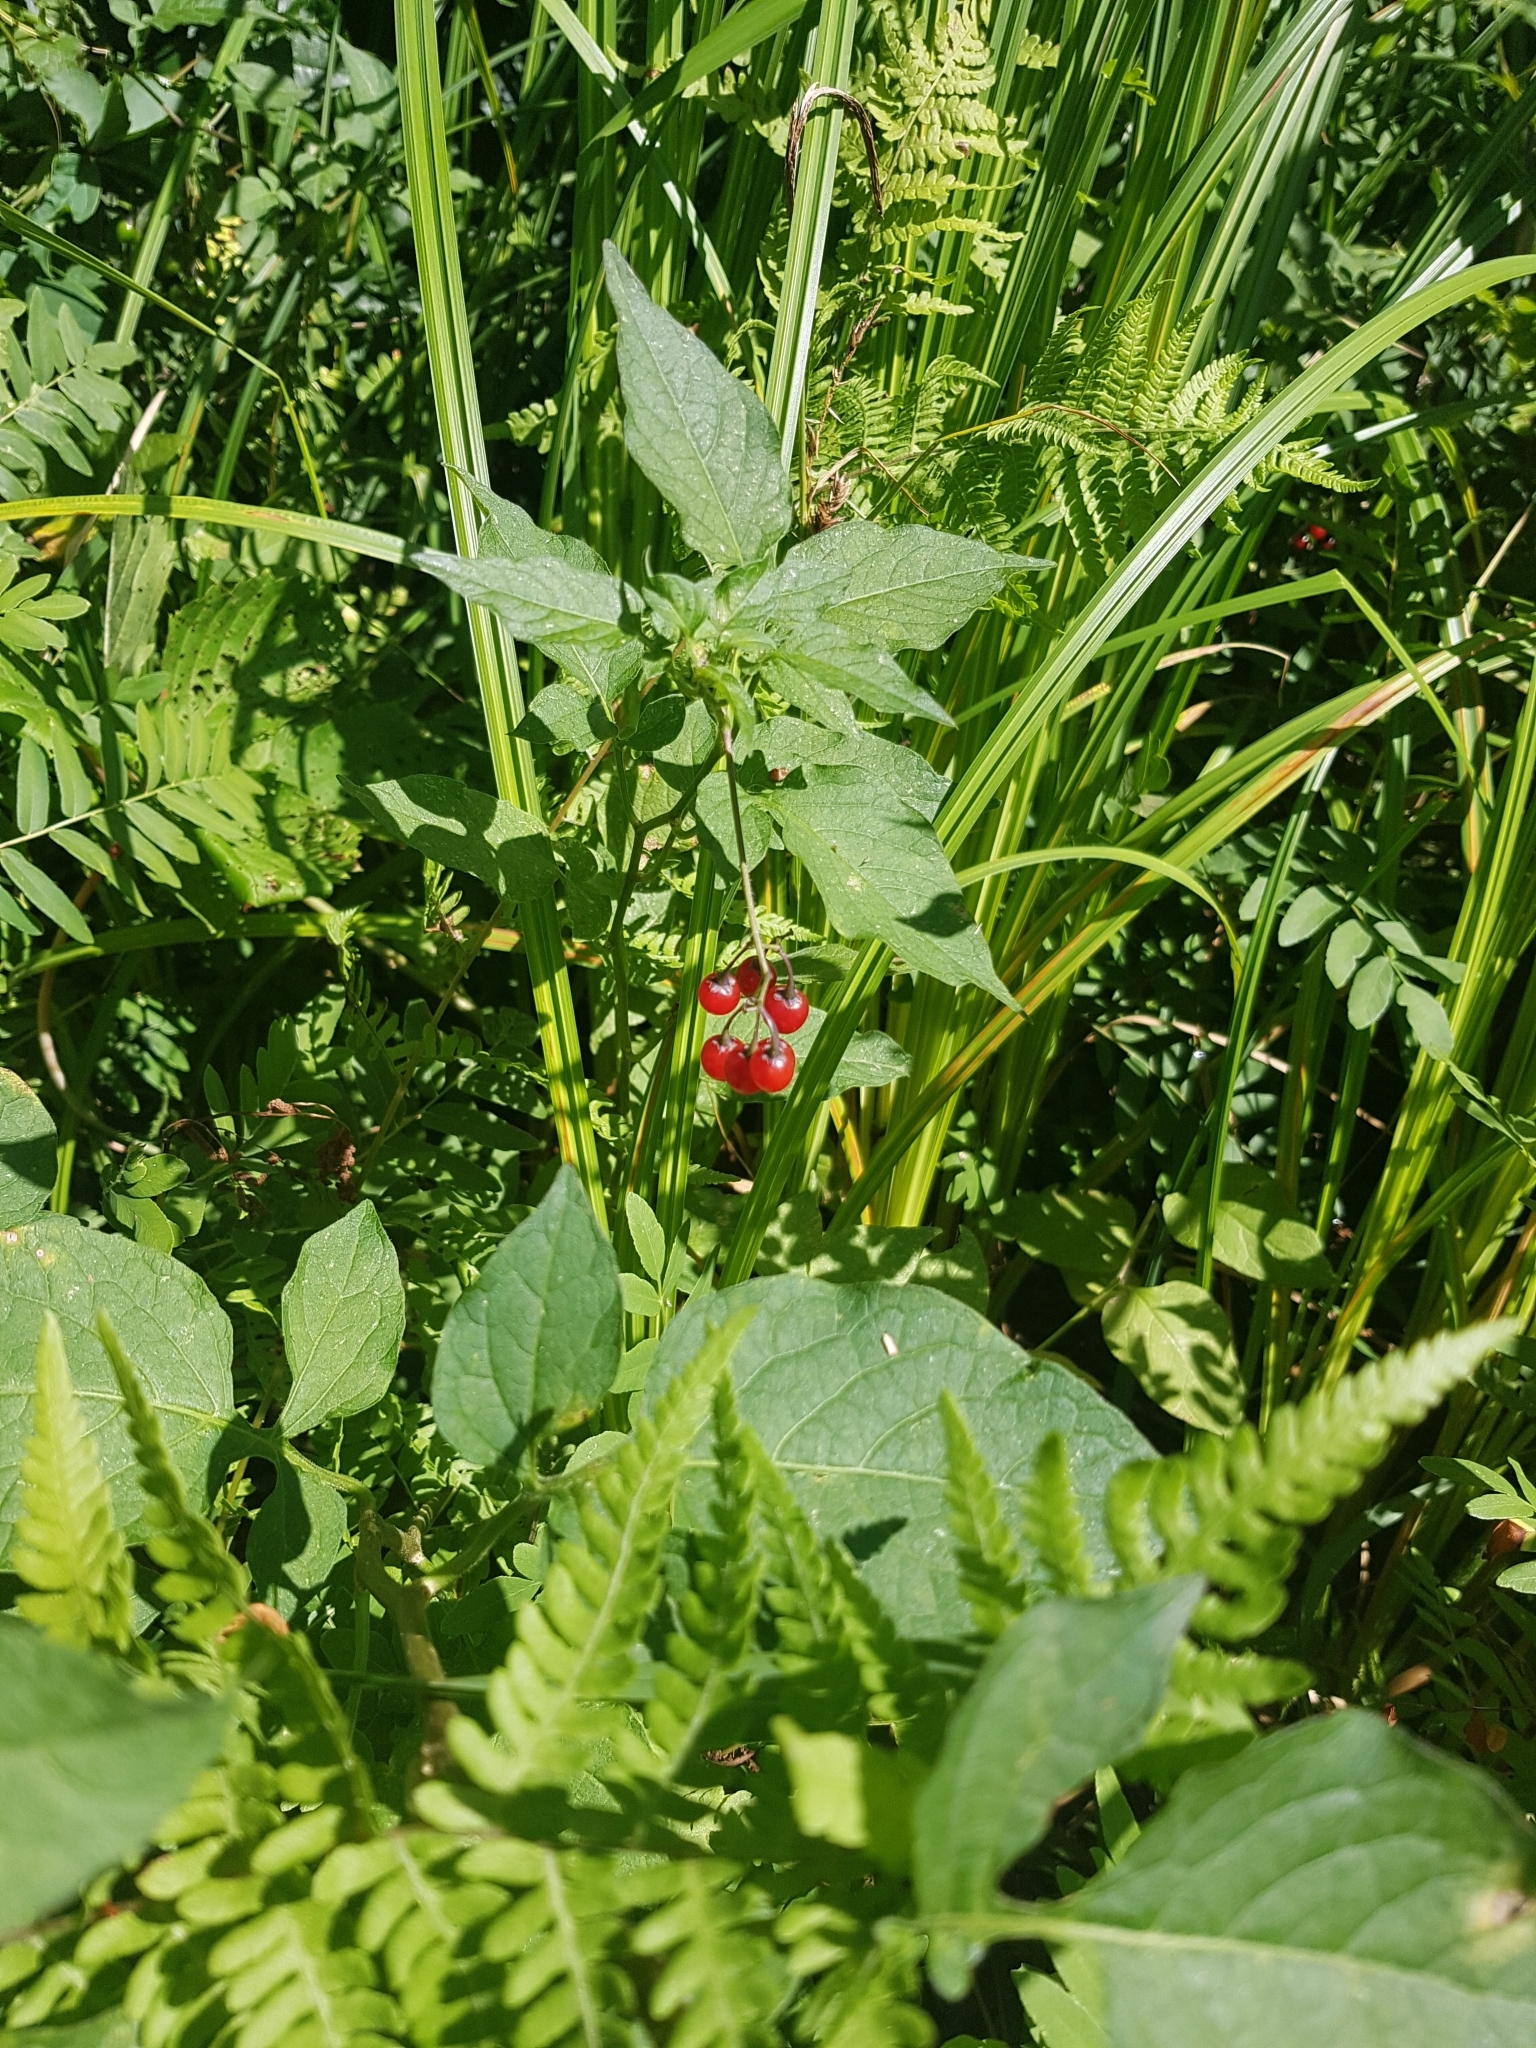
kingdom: Plantae
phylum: Tracheophyta
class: Magnoliopsida
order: Solanales
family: Solanaceae
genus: Solanum
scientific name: Solanum dulcamara
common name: Climbing nightshade
